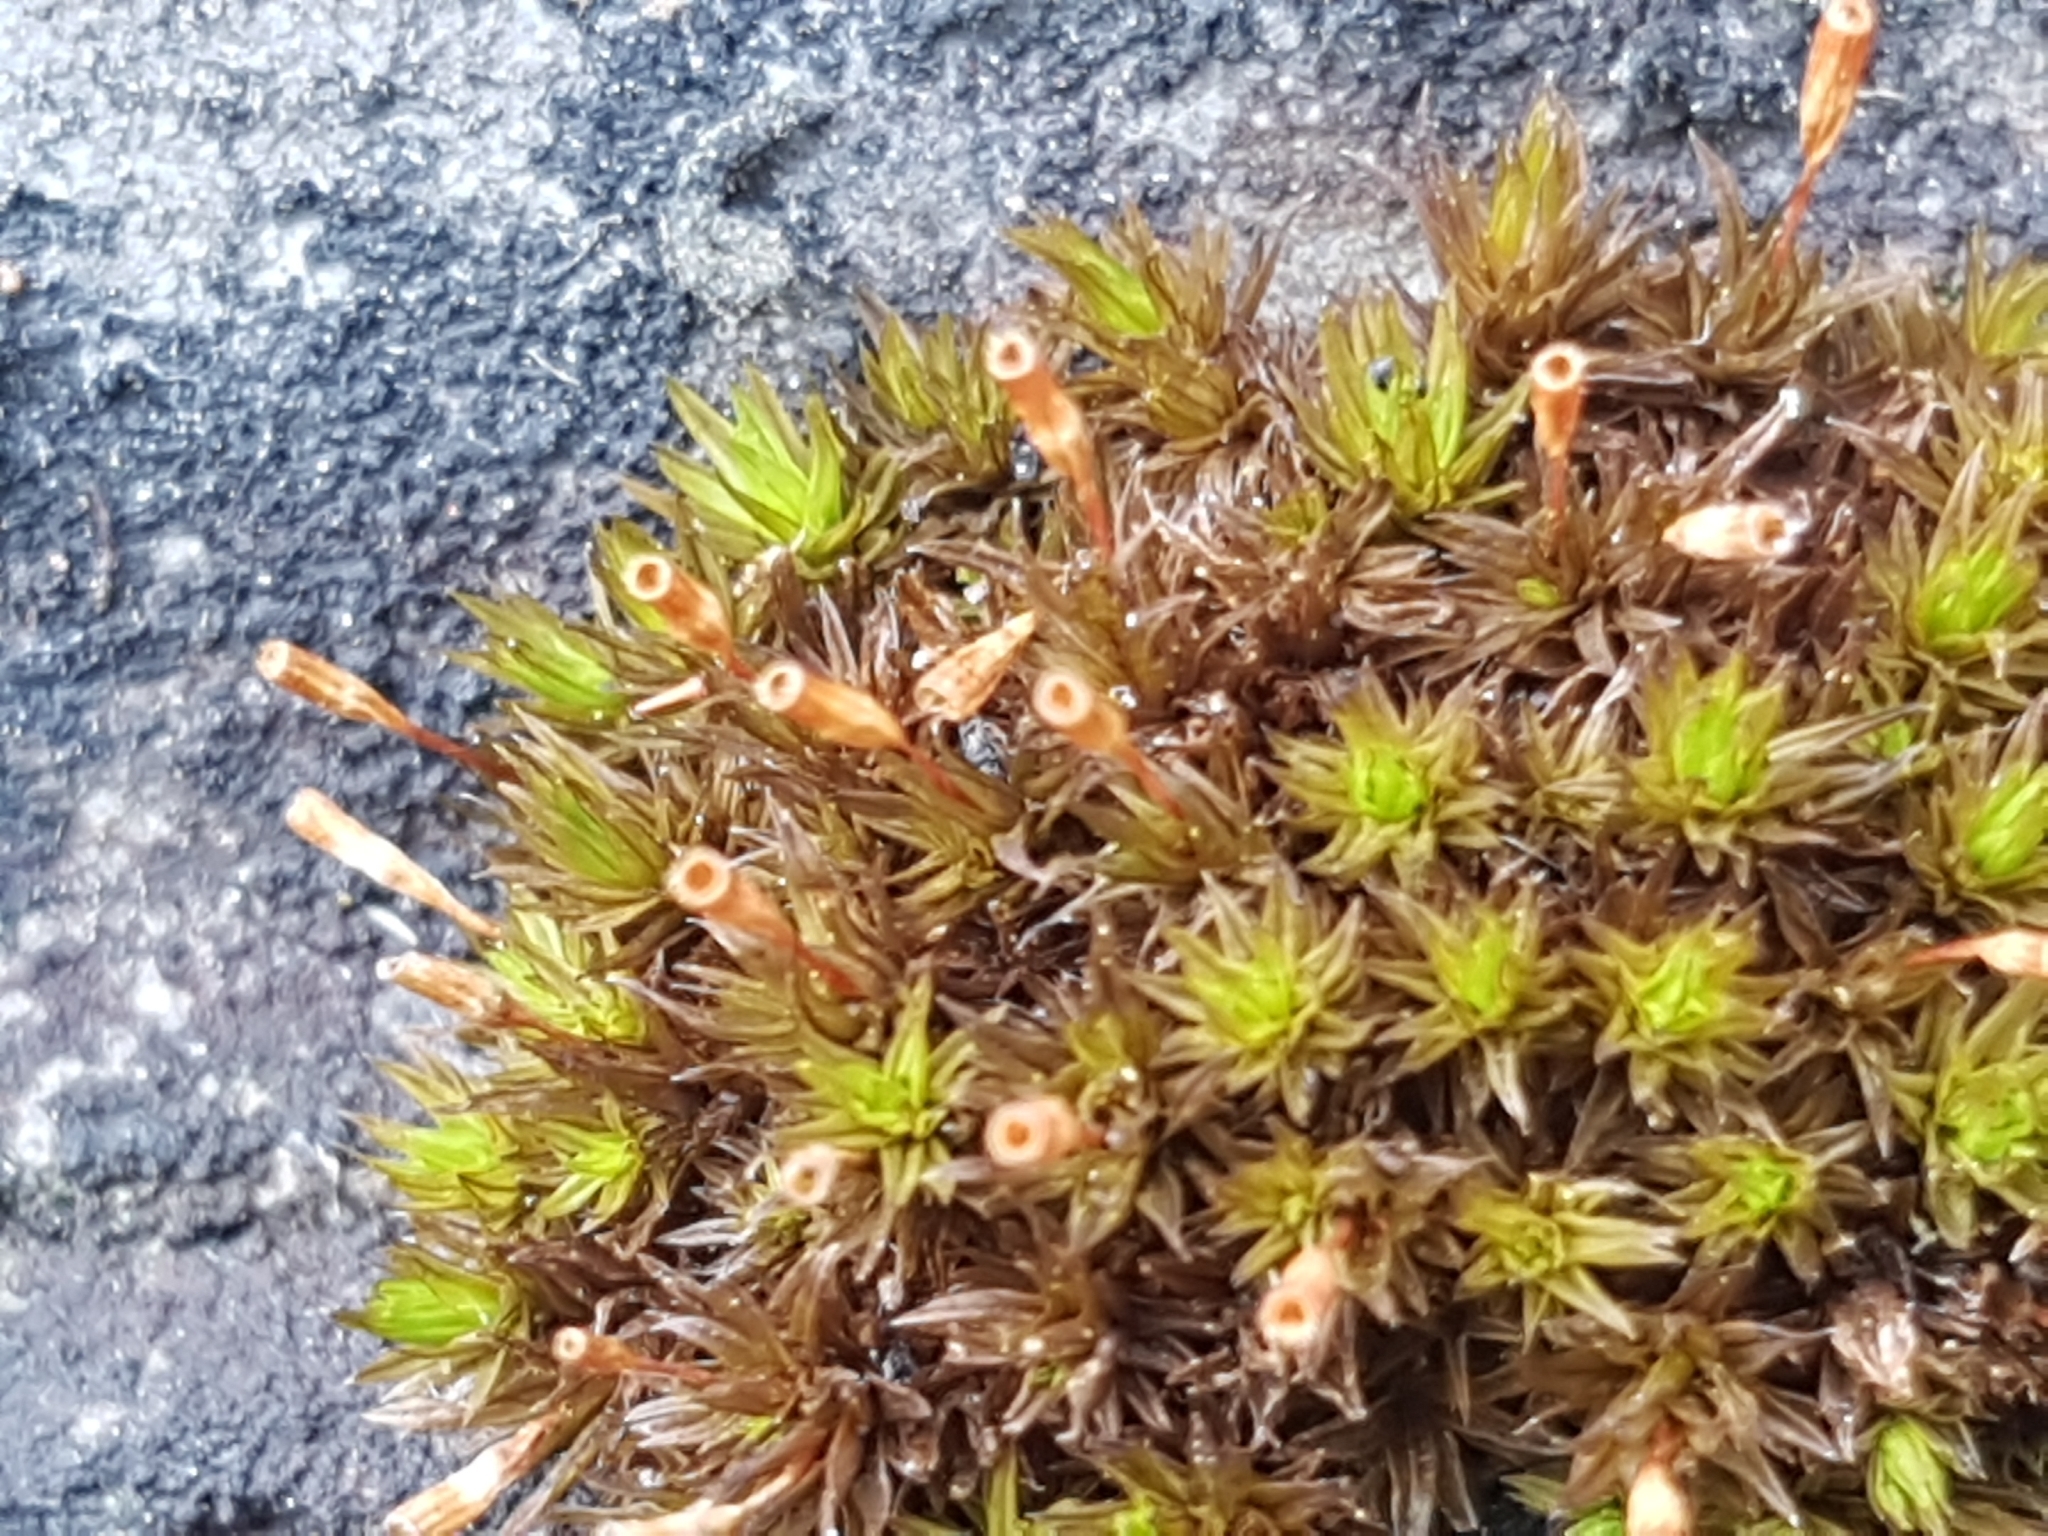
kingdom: Plantae
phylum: Bryophyta
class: Bryopsida
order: Orthotrichales
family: Orthotrichaceae
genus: Orthotrichum
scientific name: Orthotrichum anomalum
